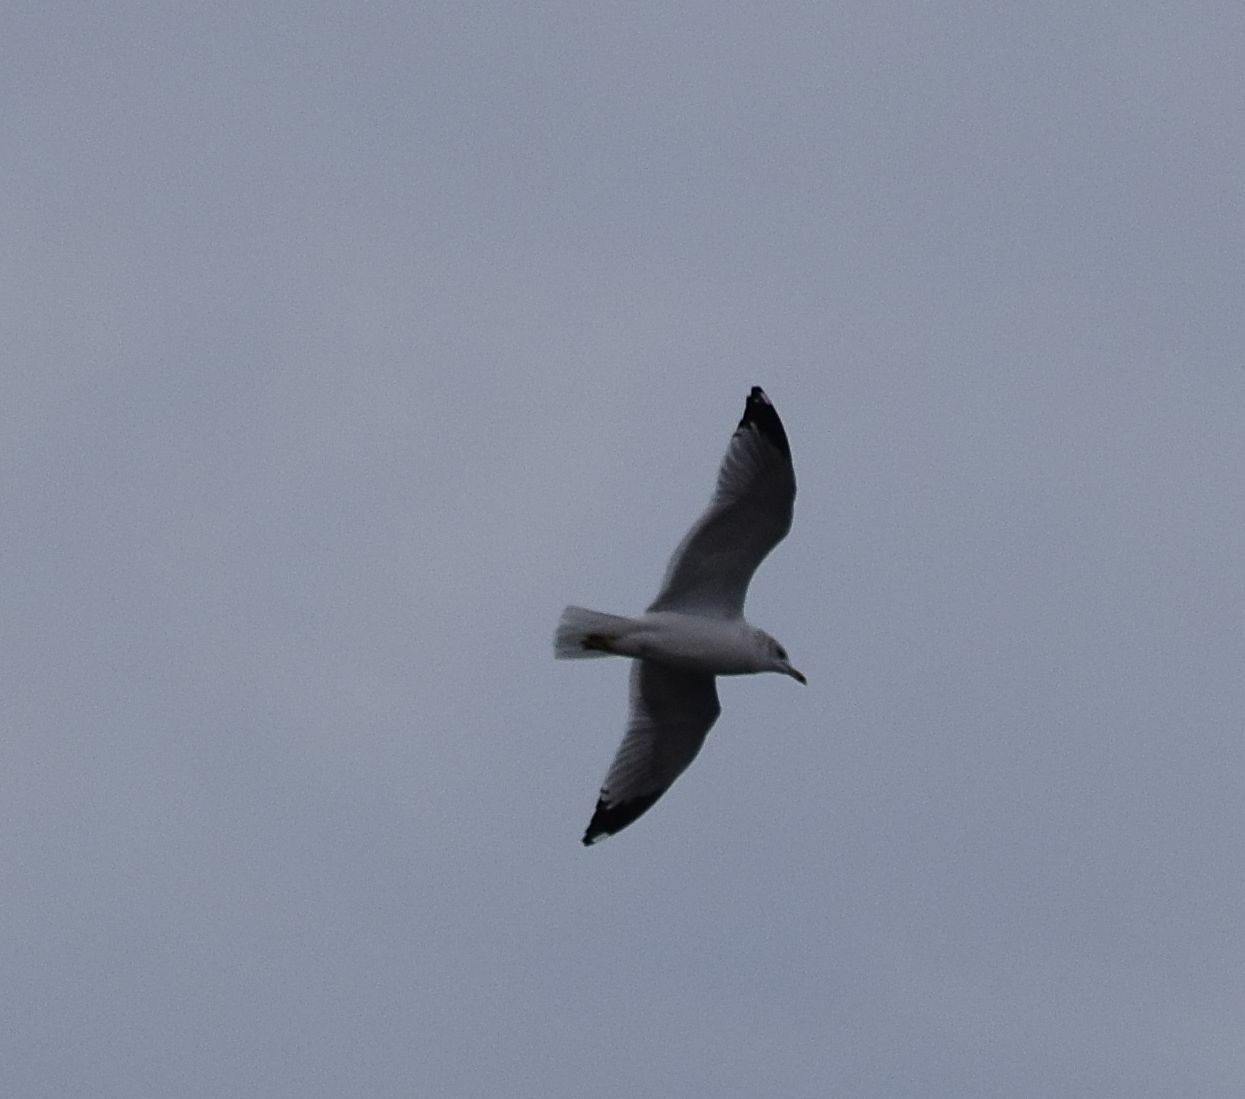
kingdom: Animalia
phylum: Chordata
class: Aves
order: Charadriiformes
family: Laridae
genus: Larus
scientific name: Larus delawarensis
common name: Ring-billed gull
